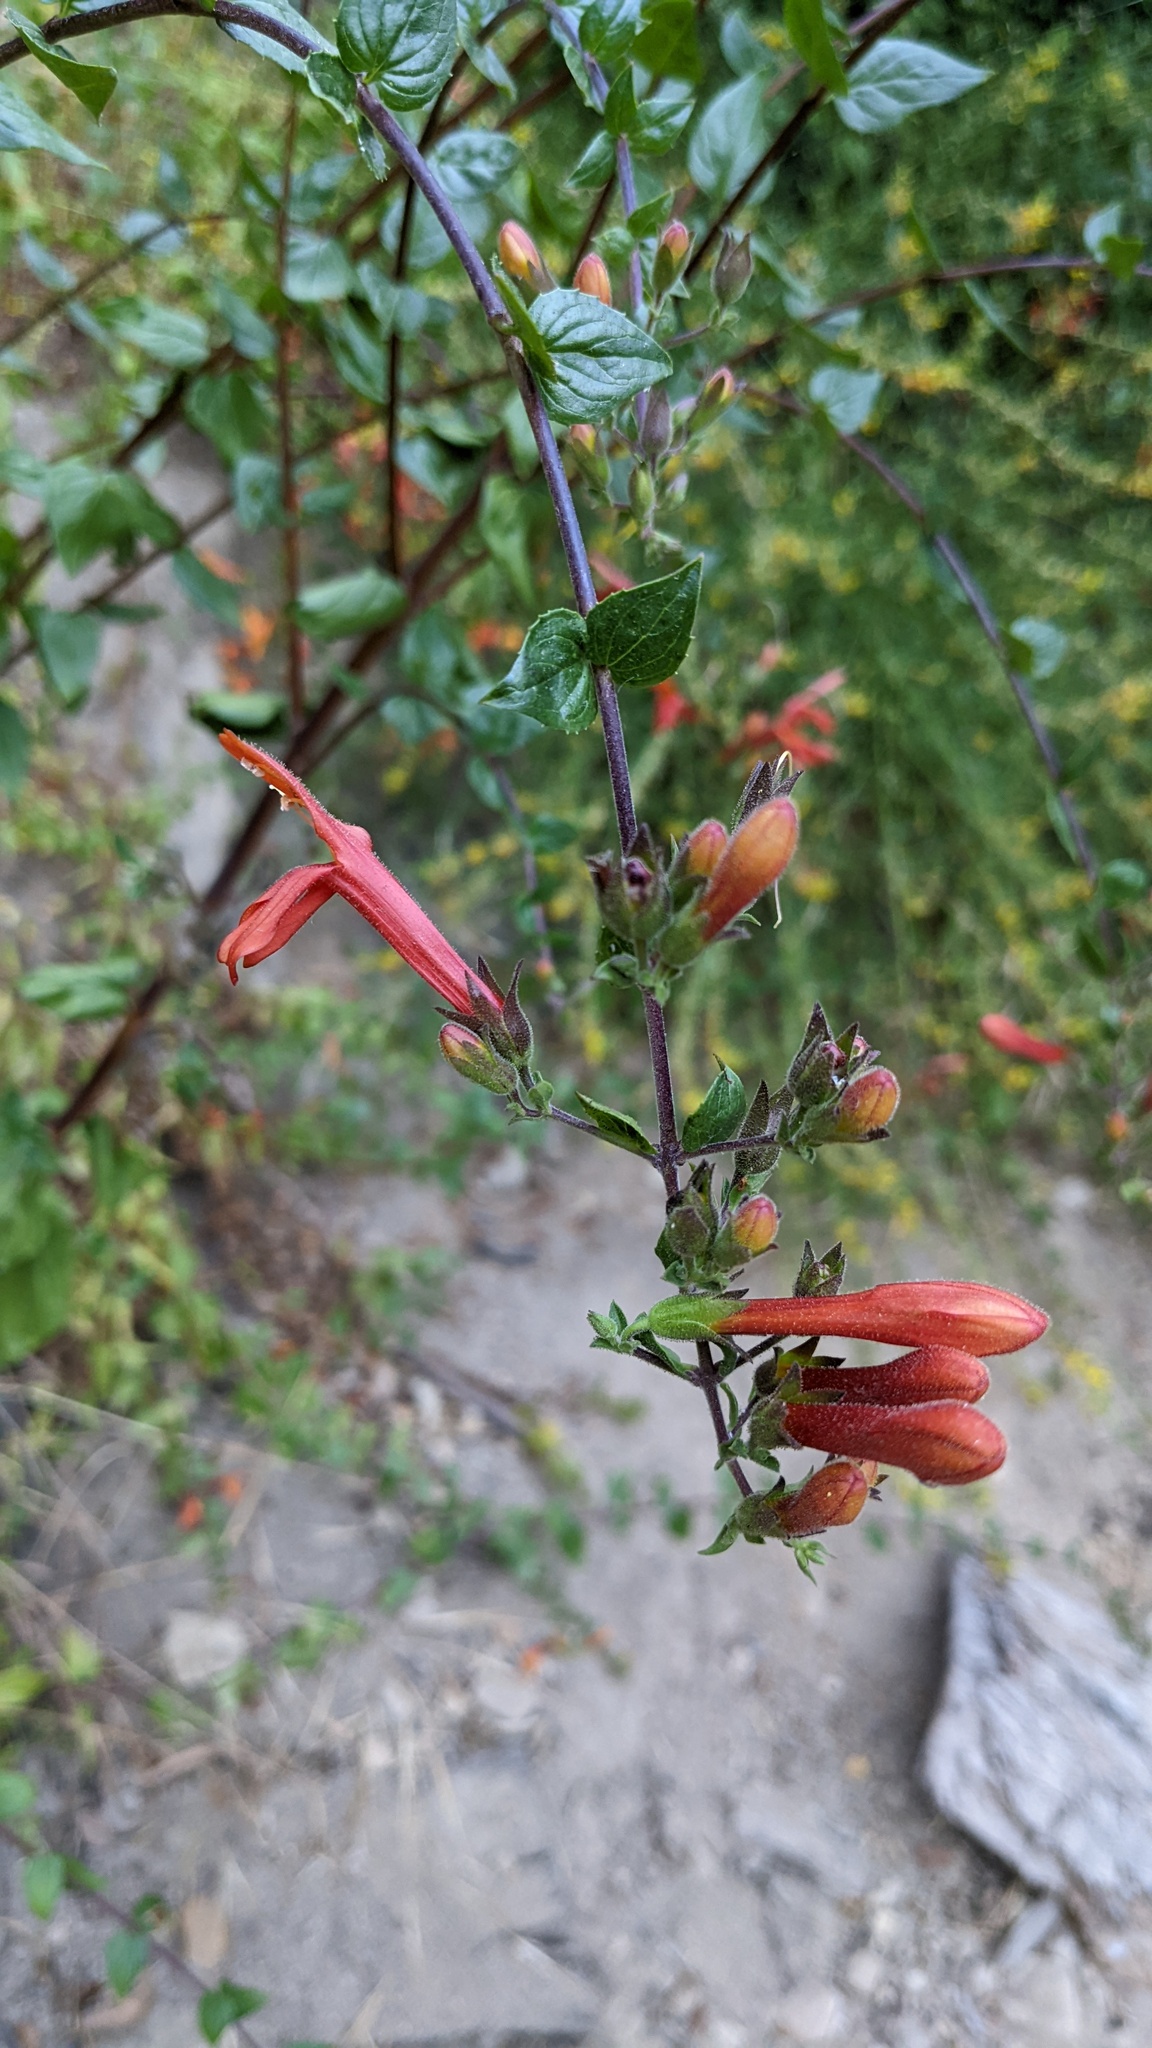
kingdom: Plantae
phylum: Tracheophyta
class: Magnoliopsida
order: Lamiales
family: Plantaginaceae
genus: Keckiella
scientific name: Keckiella cordifolia
